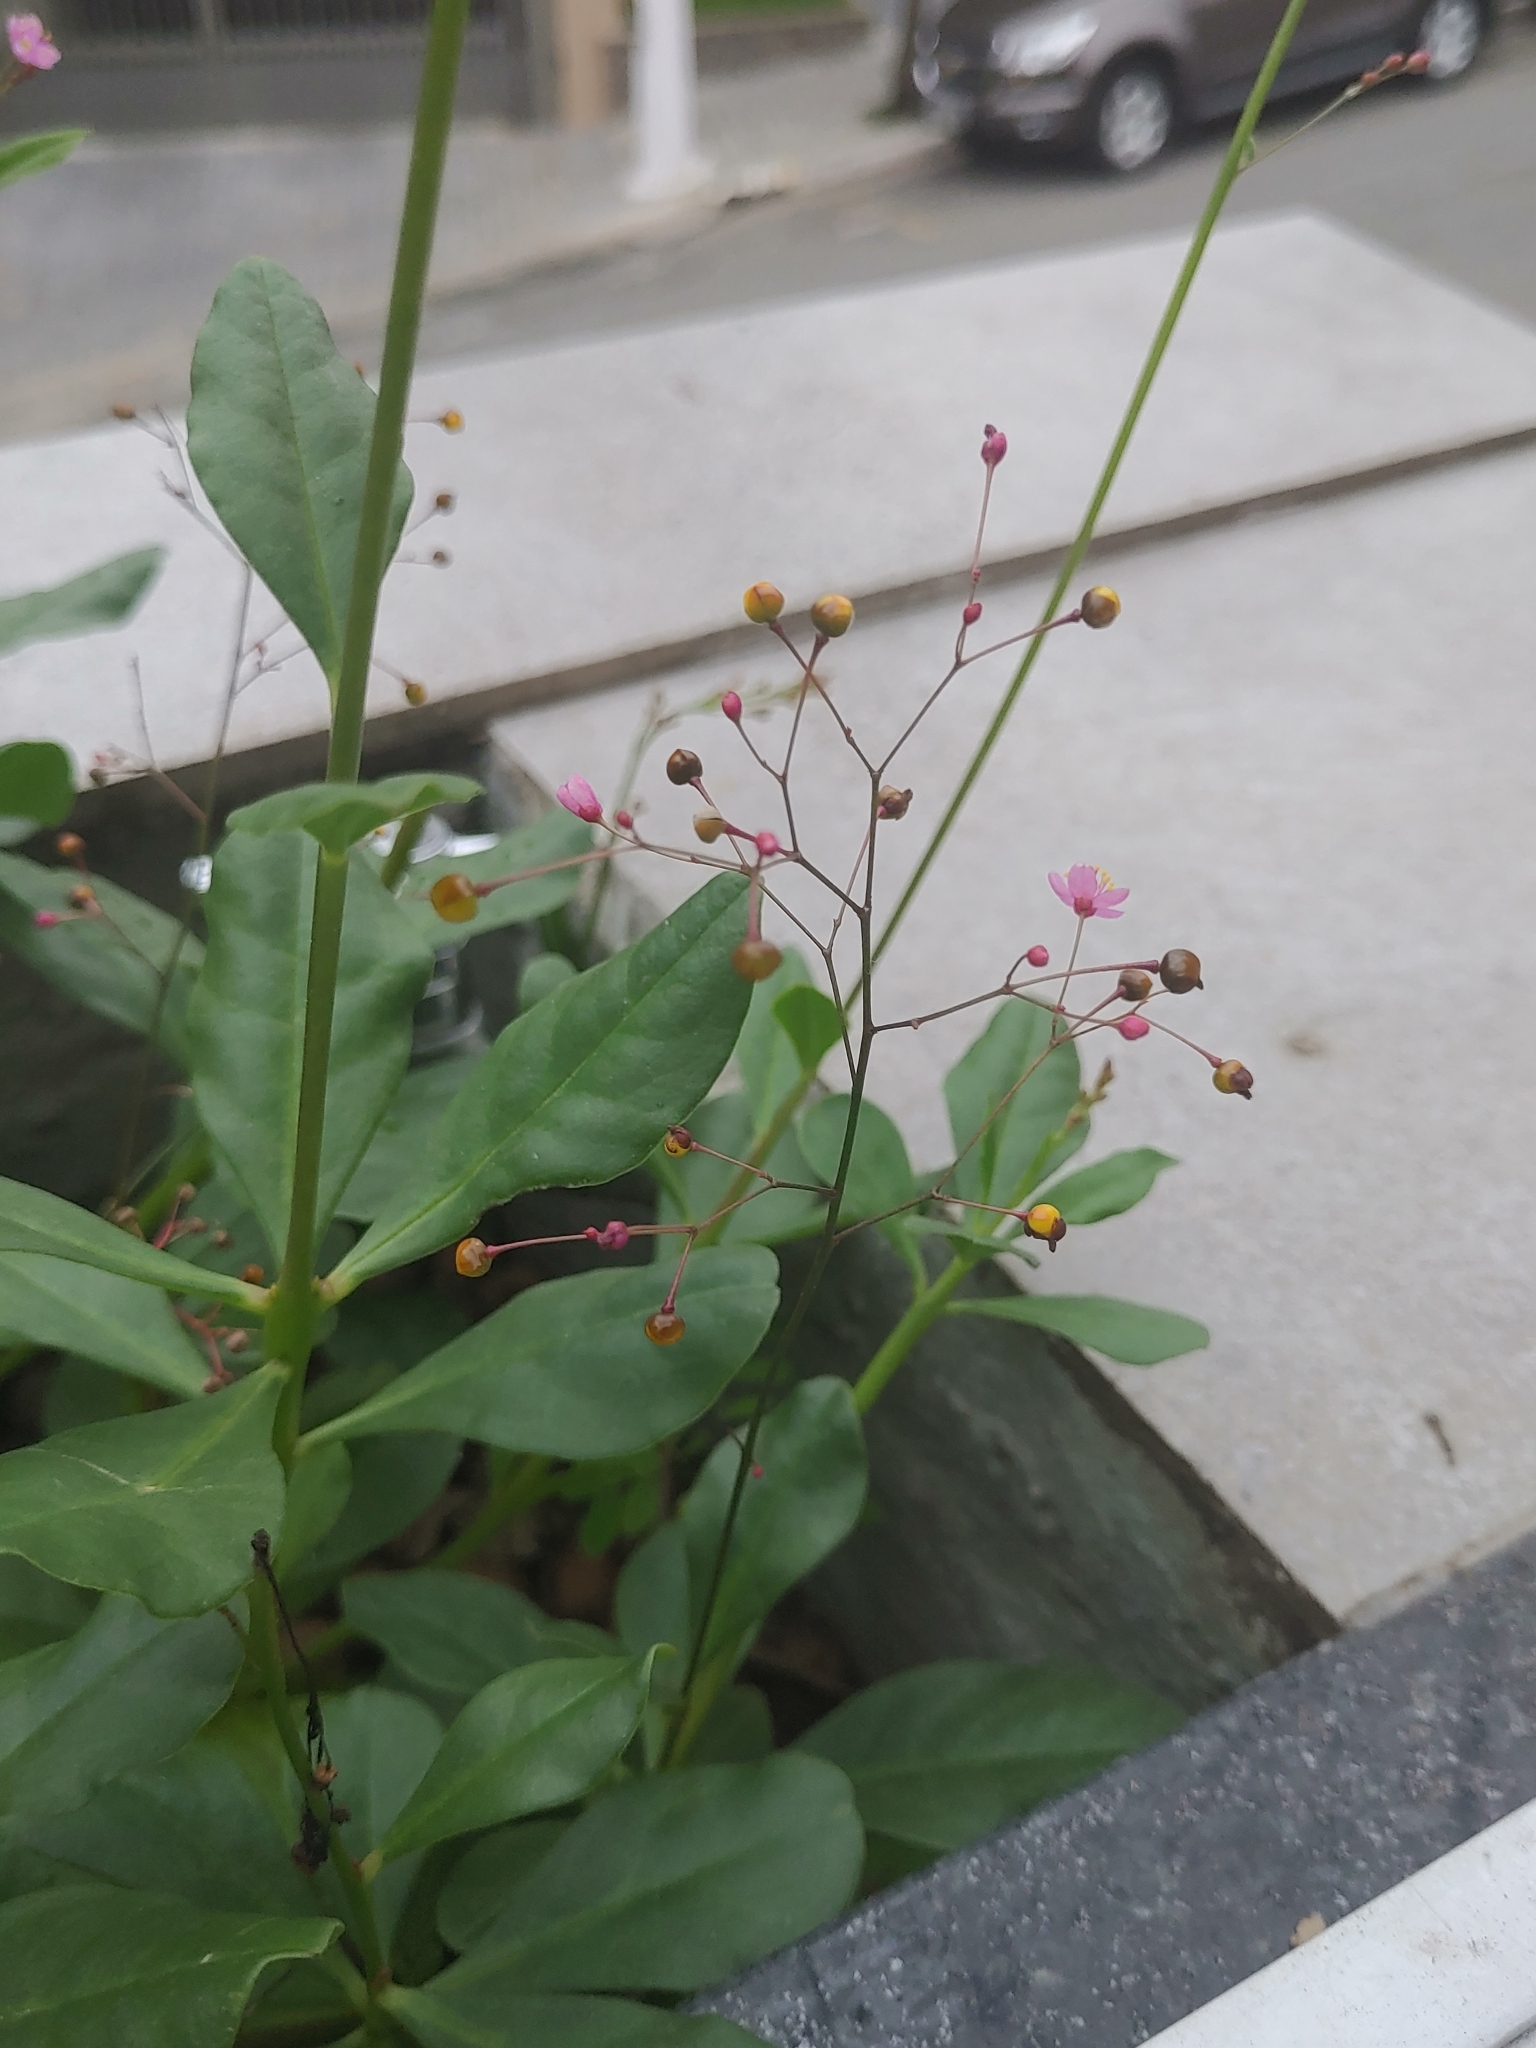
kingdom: Plantae
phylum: Tracheophyta
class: Magnoliopsida
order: Caryophyllales
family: Talinaceae
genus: Talinum
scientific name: Talinum paniculatum
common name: Jewels of opar
